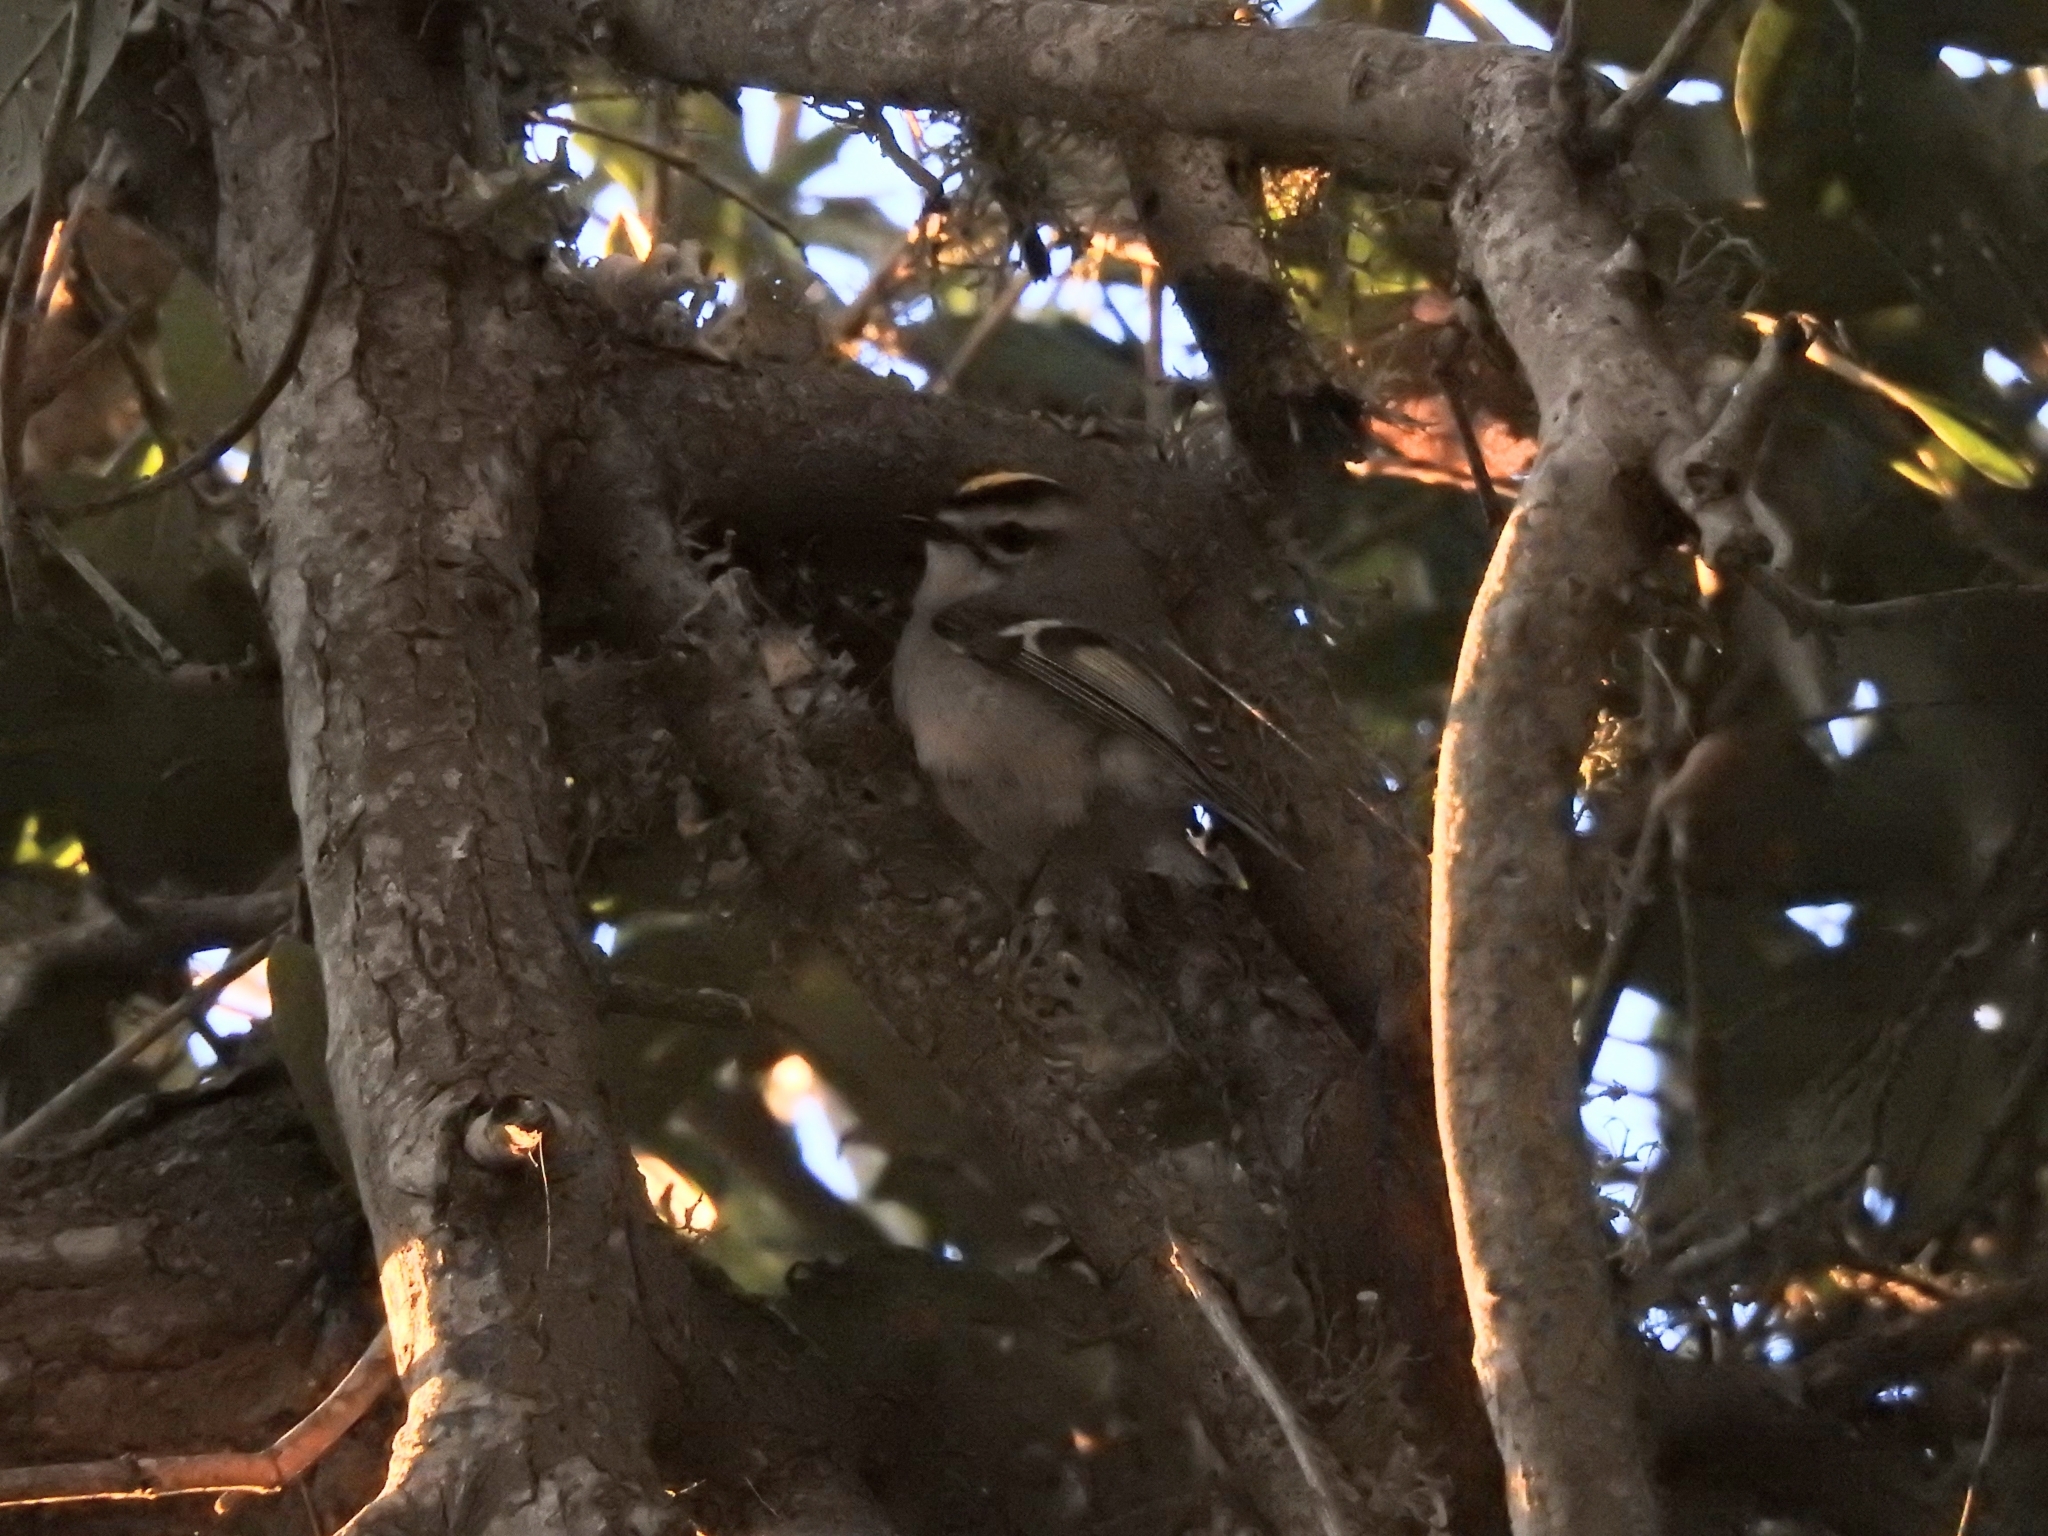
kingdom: Animalia
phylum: Chordata
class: Aves
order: Passeriformes
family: Regulidae
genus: Regulus
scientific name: Regulus satrapa
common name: Golden-crowned kinglet
